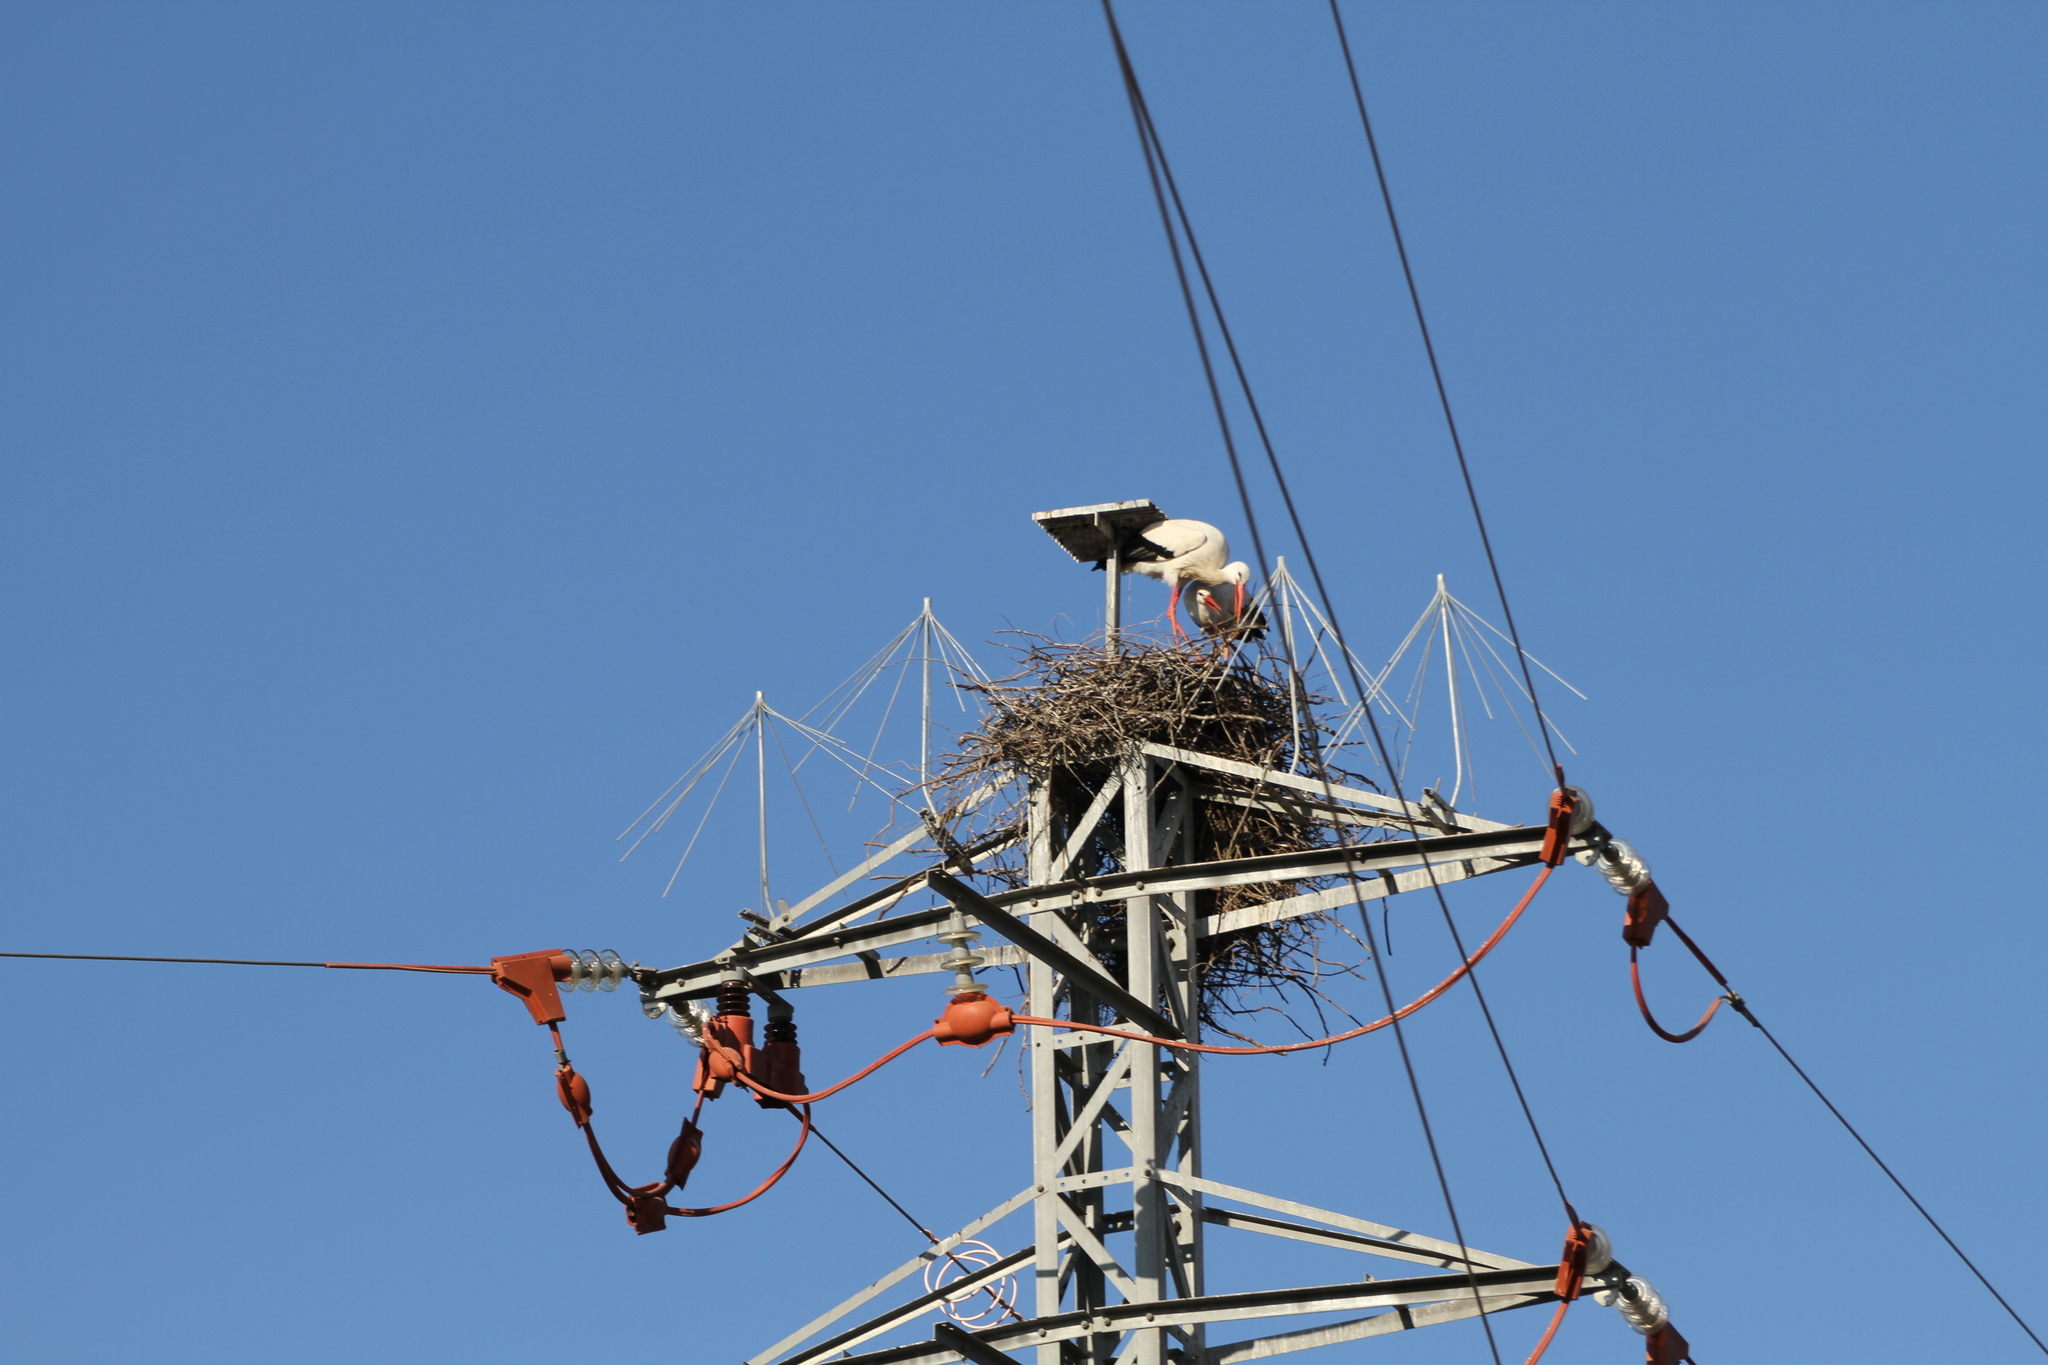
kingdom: Animalia
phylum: Chordata
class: Aves
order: Ciconiiformes
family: Ciconiidae
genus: Ciconia
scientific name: Ciconia ciconia
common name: White stork
